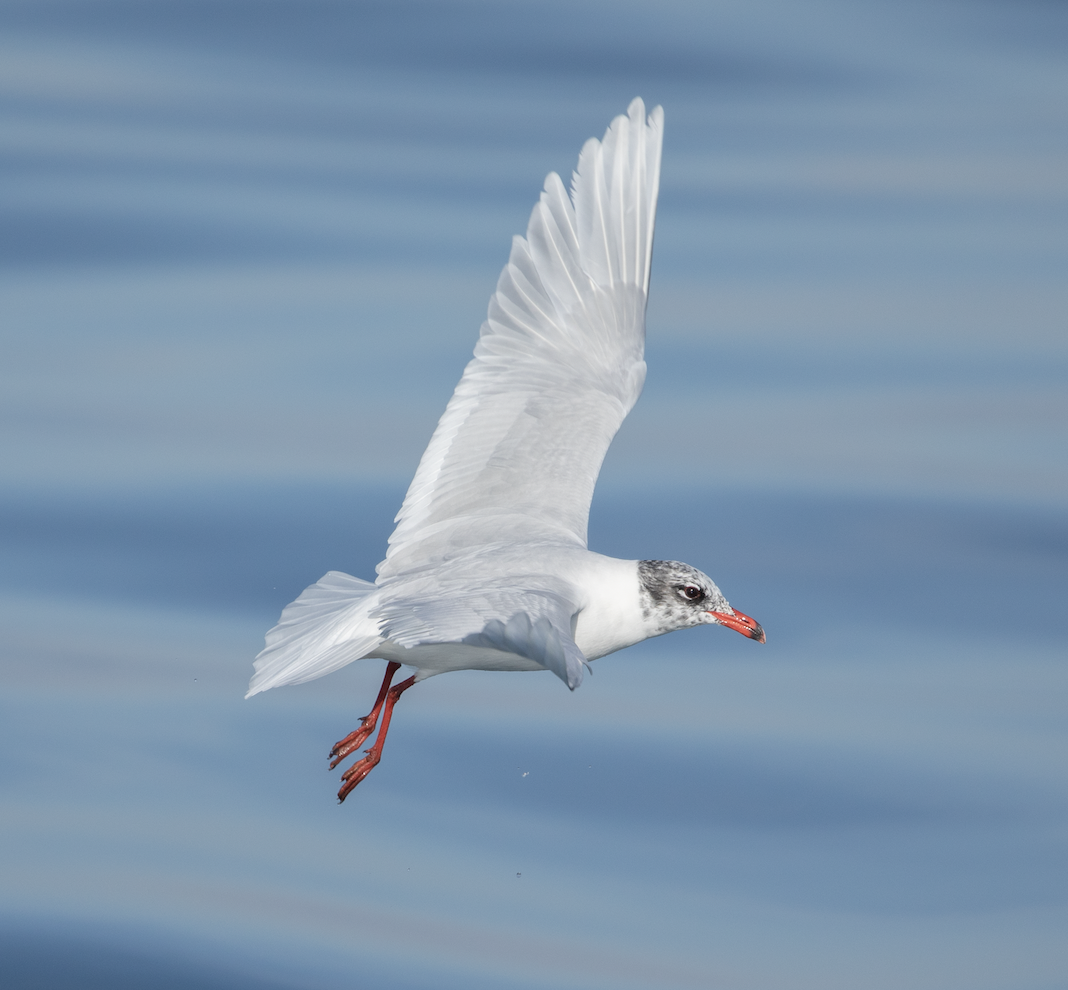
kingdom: Animalia
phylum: Chordata
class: Aves
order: Charadriiformes
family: Laridae
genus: Ichthyaetus
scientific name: Ichthyaetus melanocephalus
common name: Mediterranean gull
